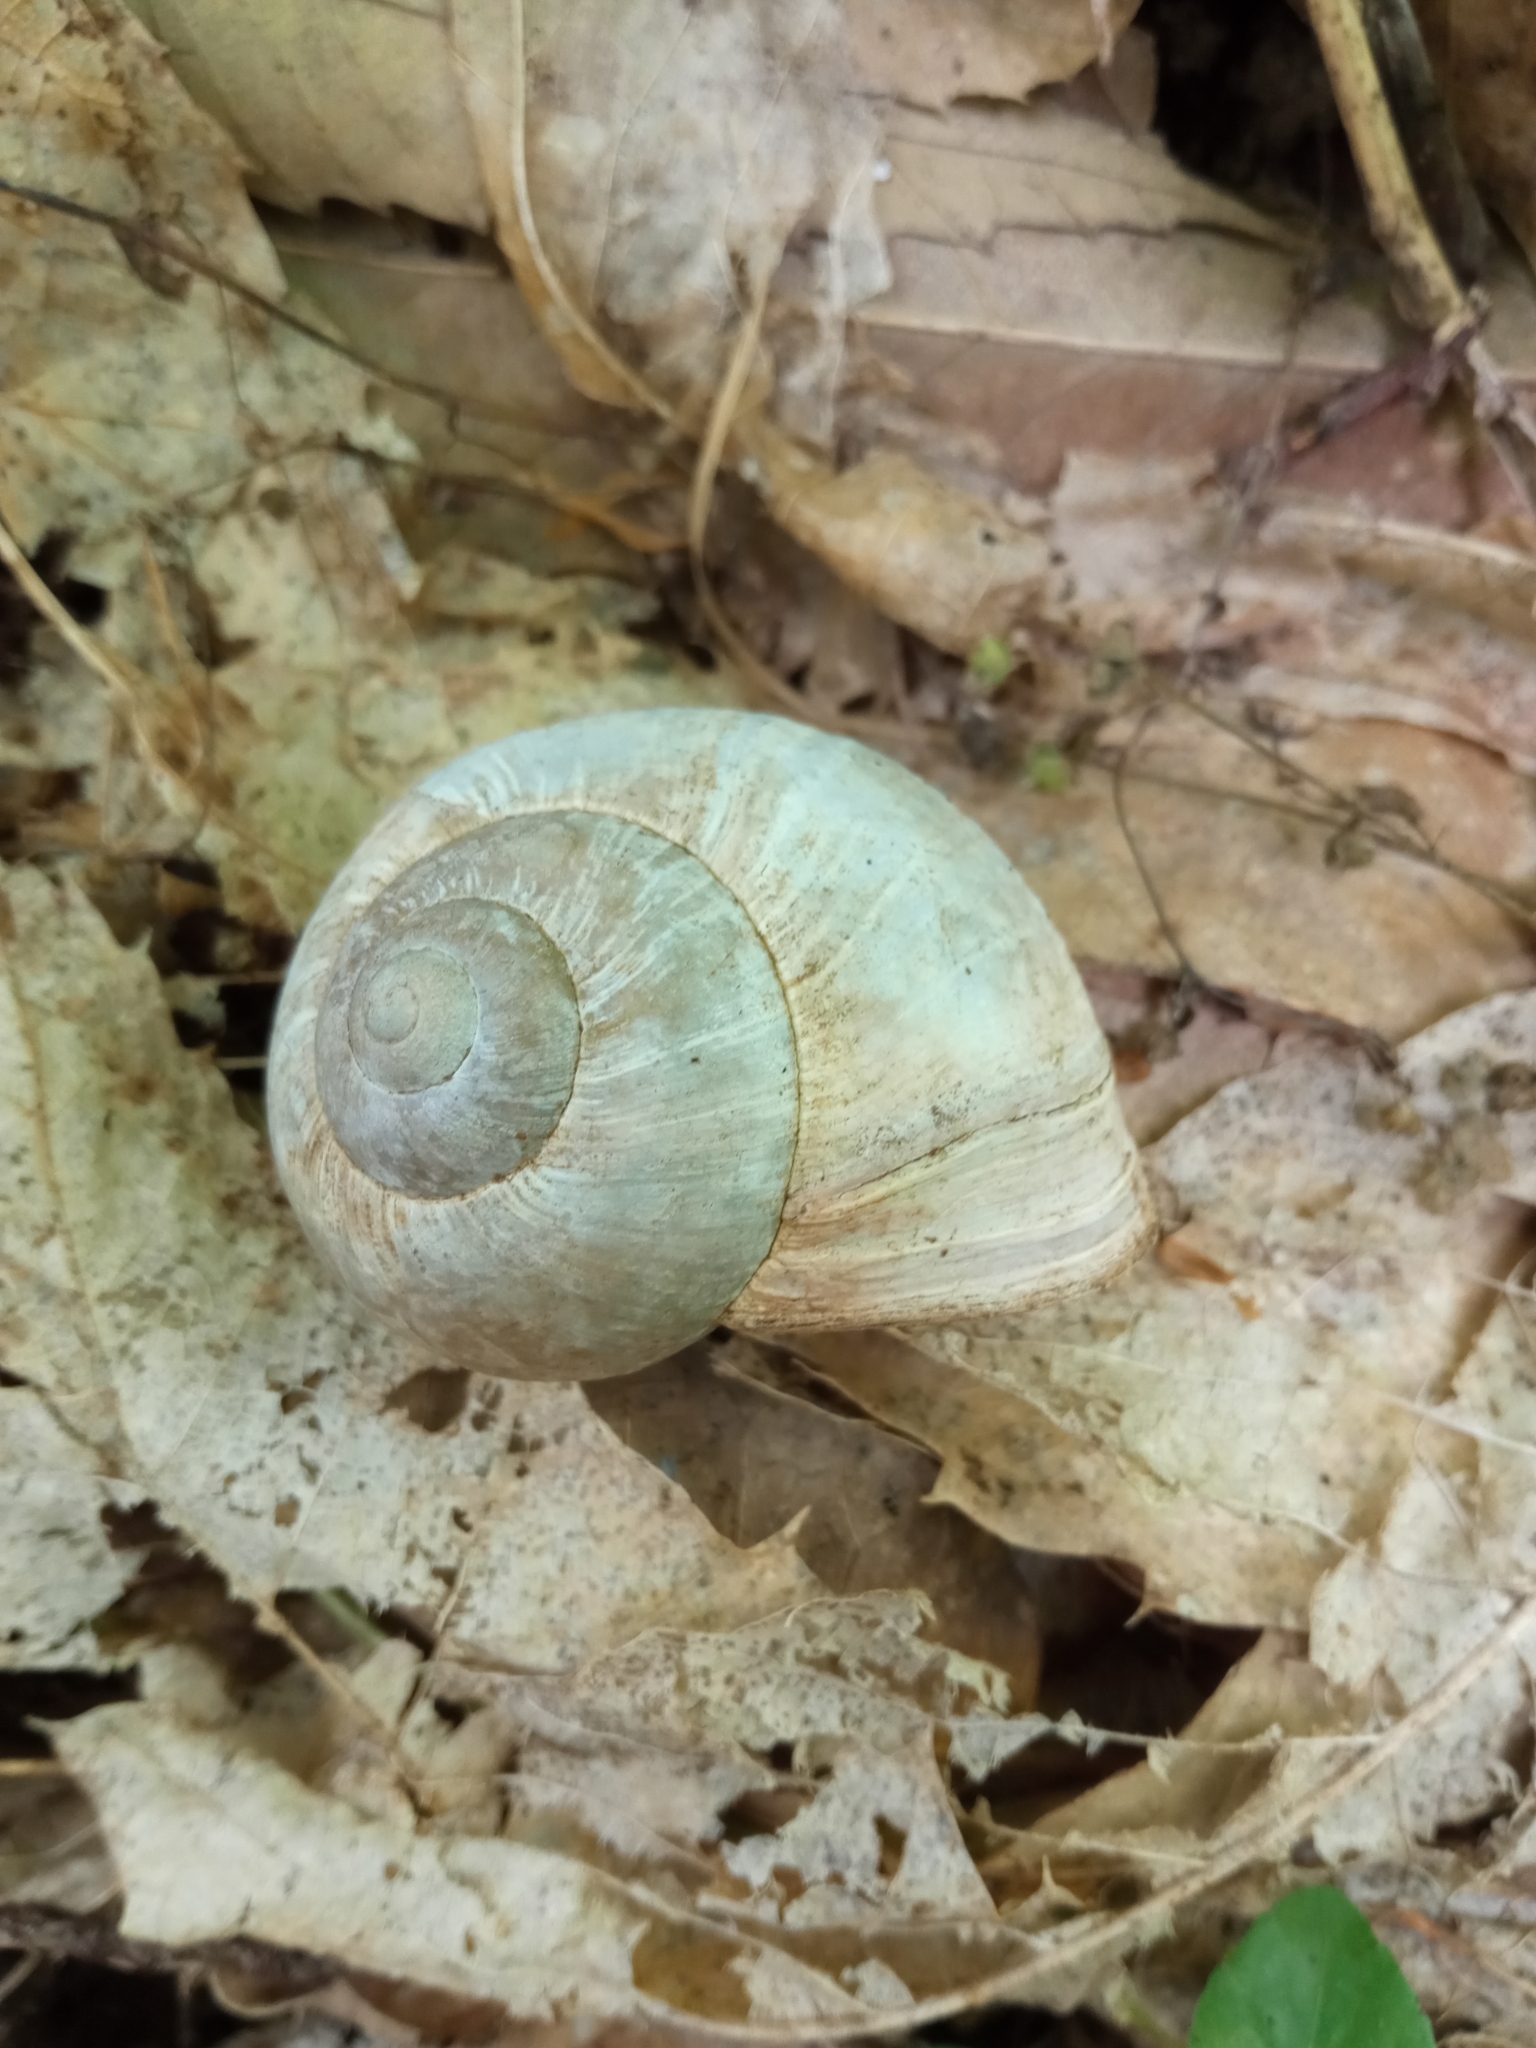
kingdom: Animalia
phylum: Mollusca
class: Gastropoda
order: Stylommatophora
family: Helicidae
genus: Helix
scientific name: Helix pomatia
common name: Roman snail
